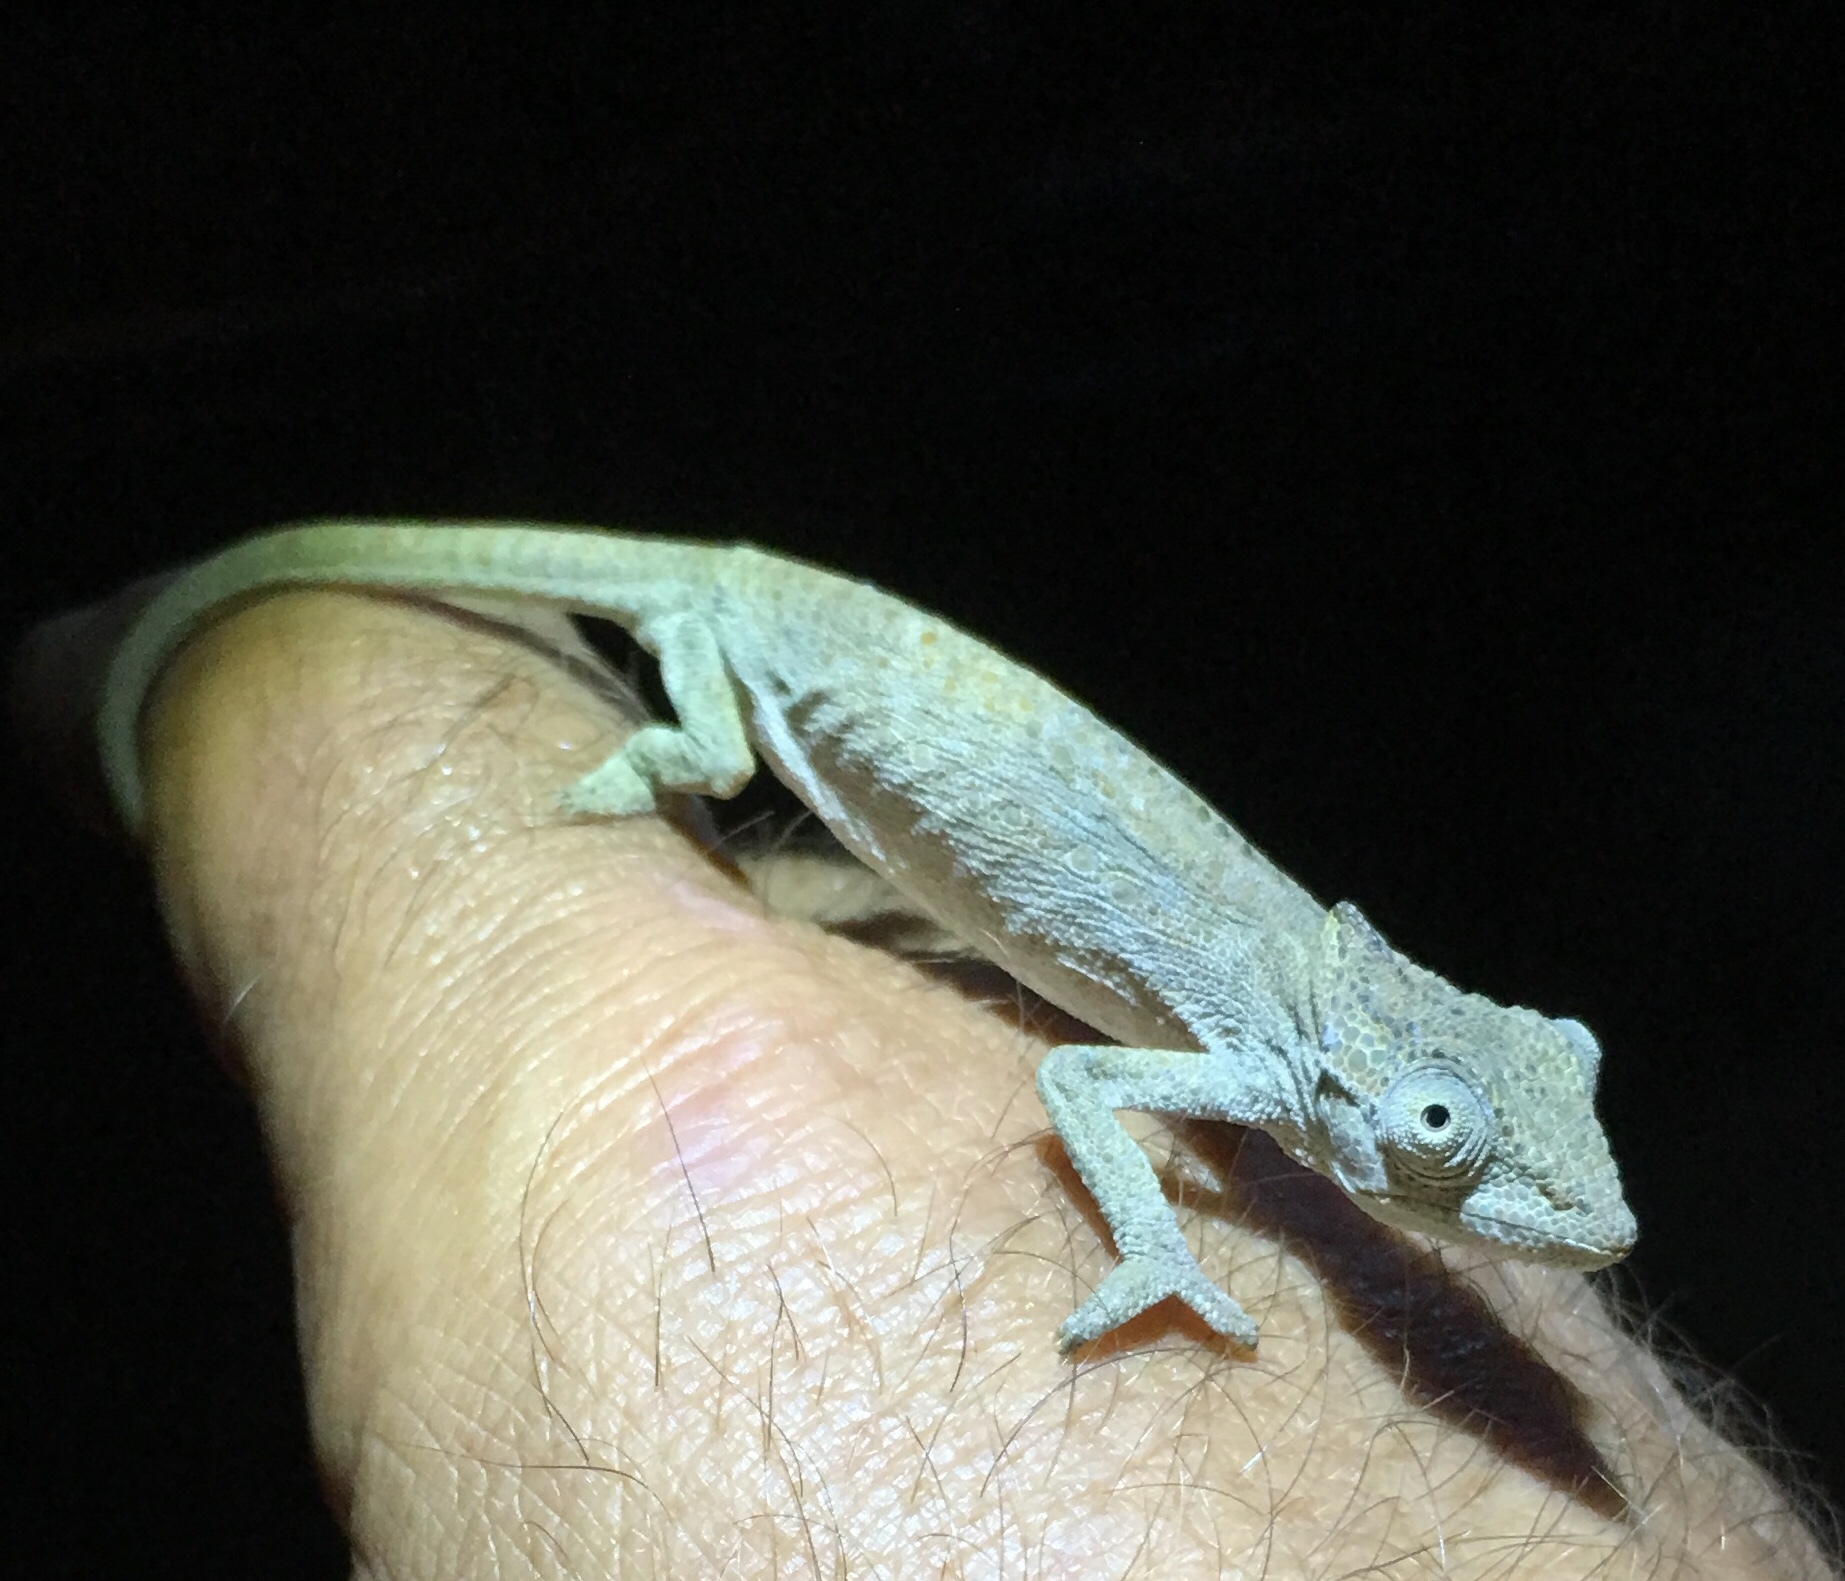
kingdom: Animalia
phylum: Chordata
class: Squamata
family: Chamaeleonidae
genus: Bradypodion
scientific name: Bradypodion setaroi
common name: Setaro's dwarf chameleon
